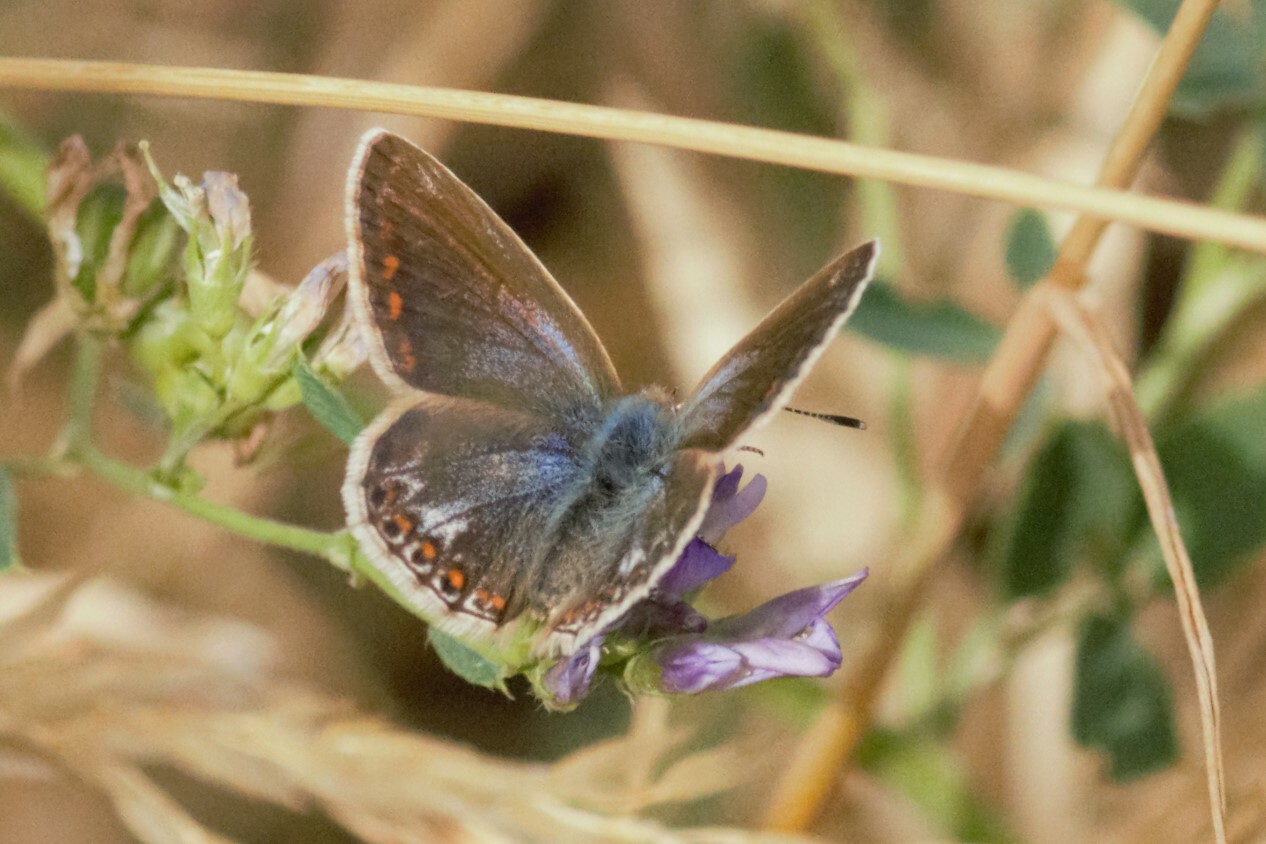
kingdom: Animalia
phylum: Arthropoda
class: Insecta
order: Lepidoptera
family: Lycaenidae
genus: Polyommatus
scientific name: Polyommatus icarus
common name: Common blue
